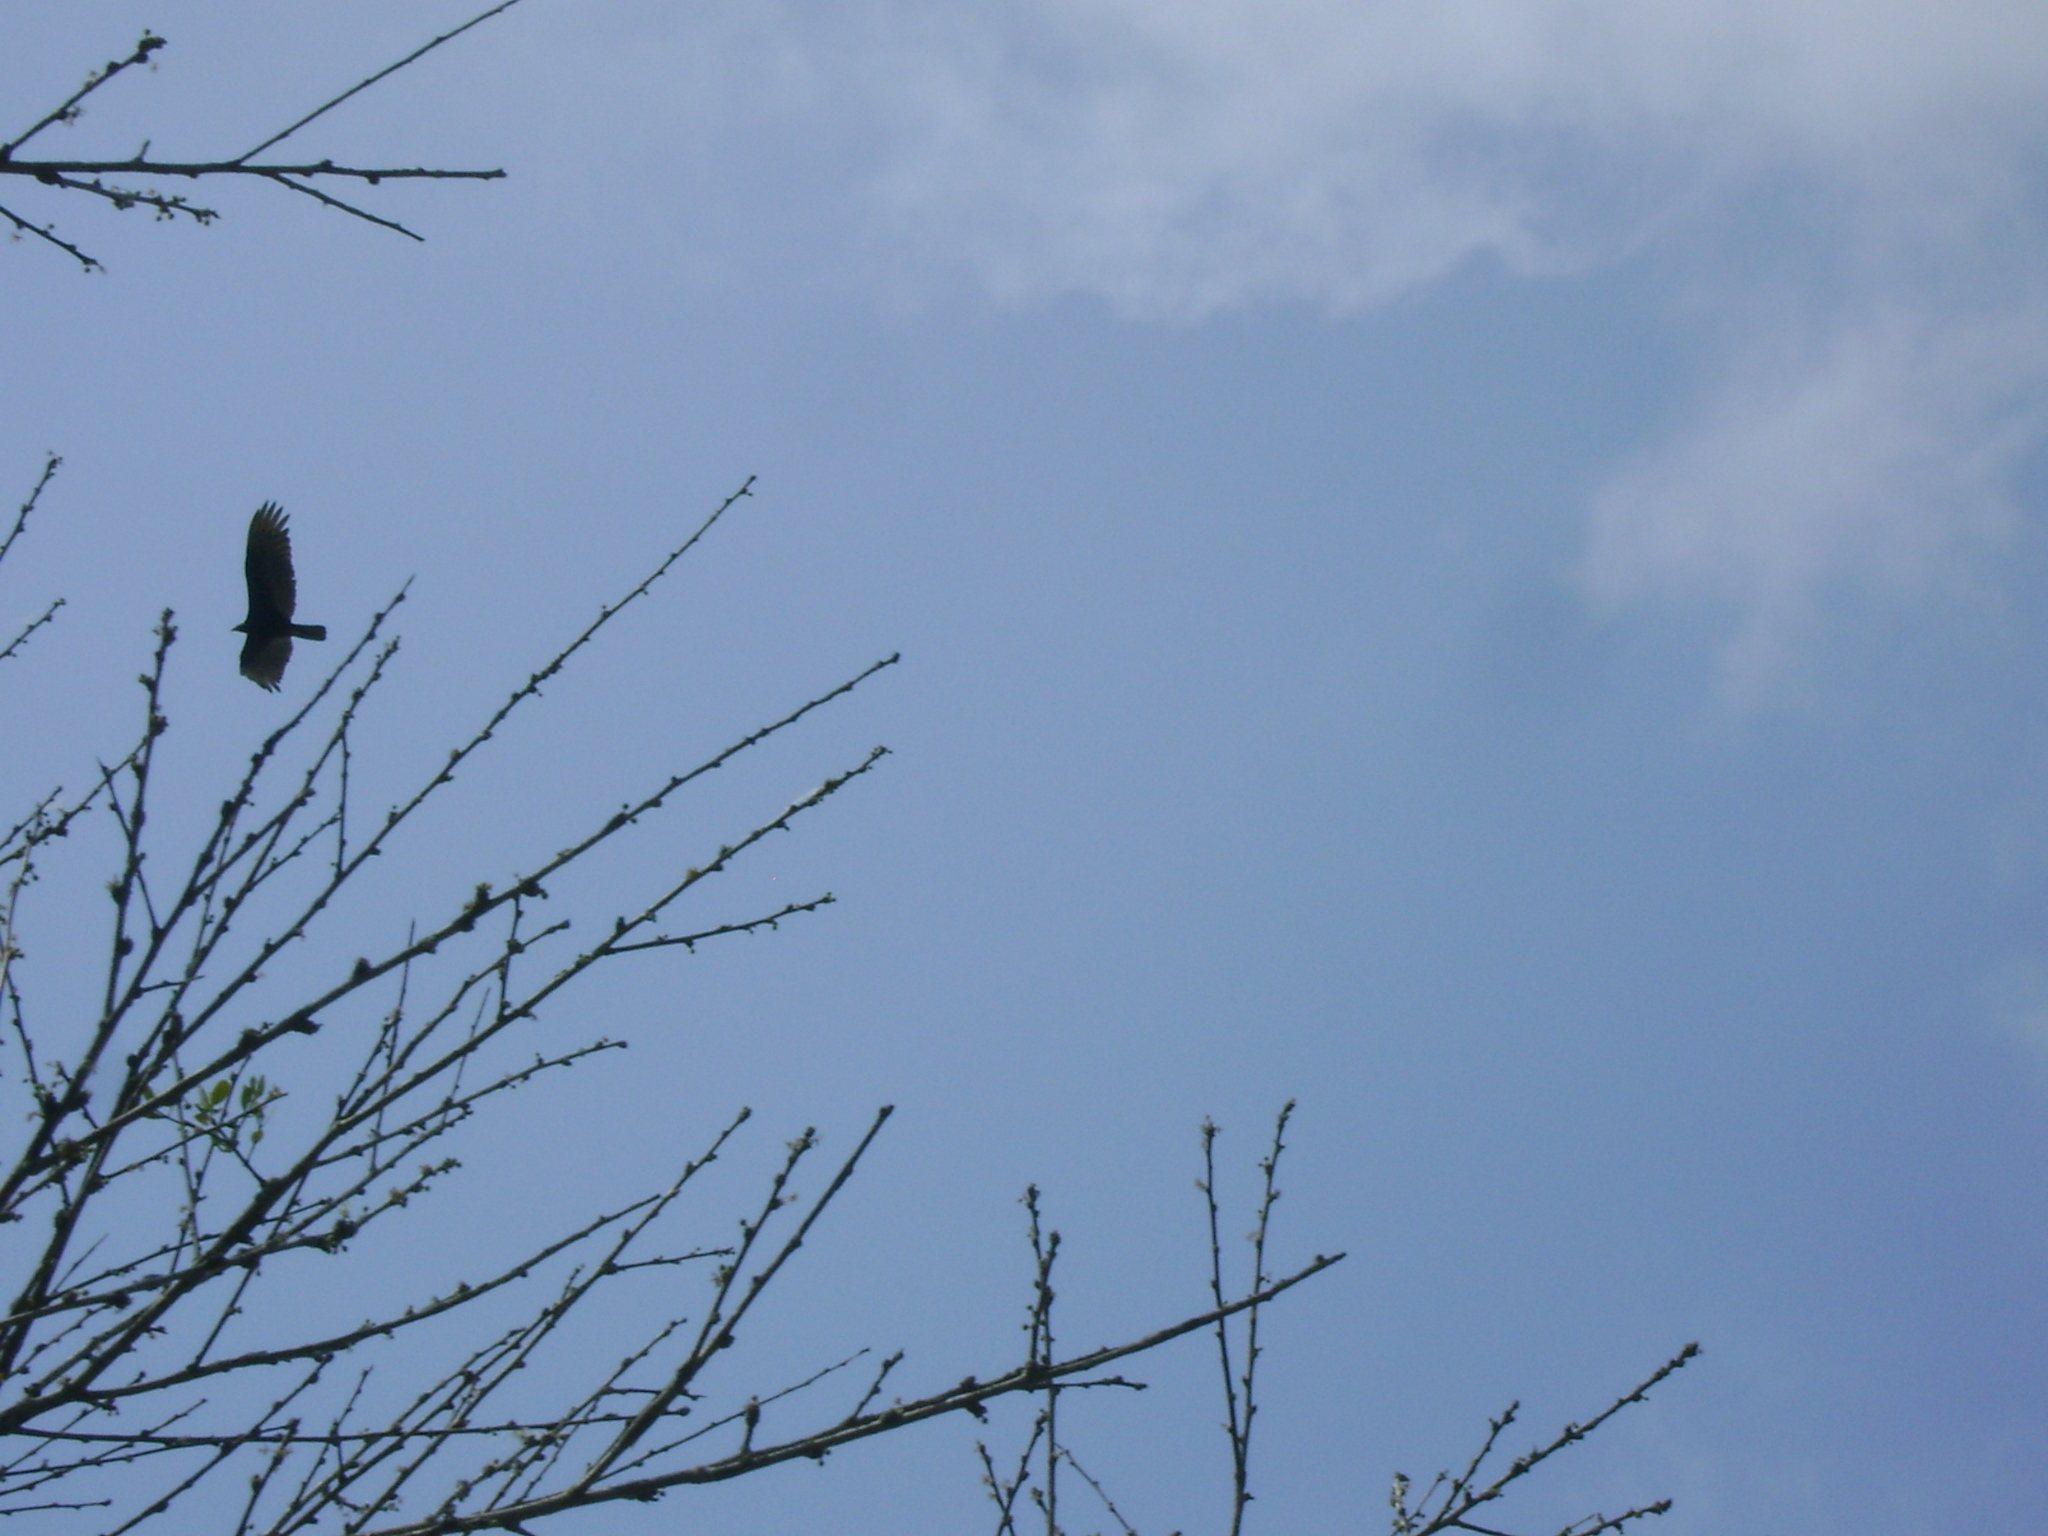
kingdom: Animalia
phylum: Chordata
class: Aves
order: Accipitriformes
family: Cathartidae
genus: Cathartes
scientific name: Cathartes aura
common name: Turkey vulture
